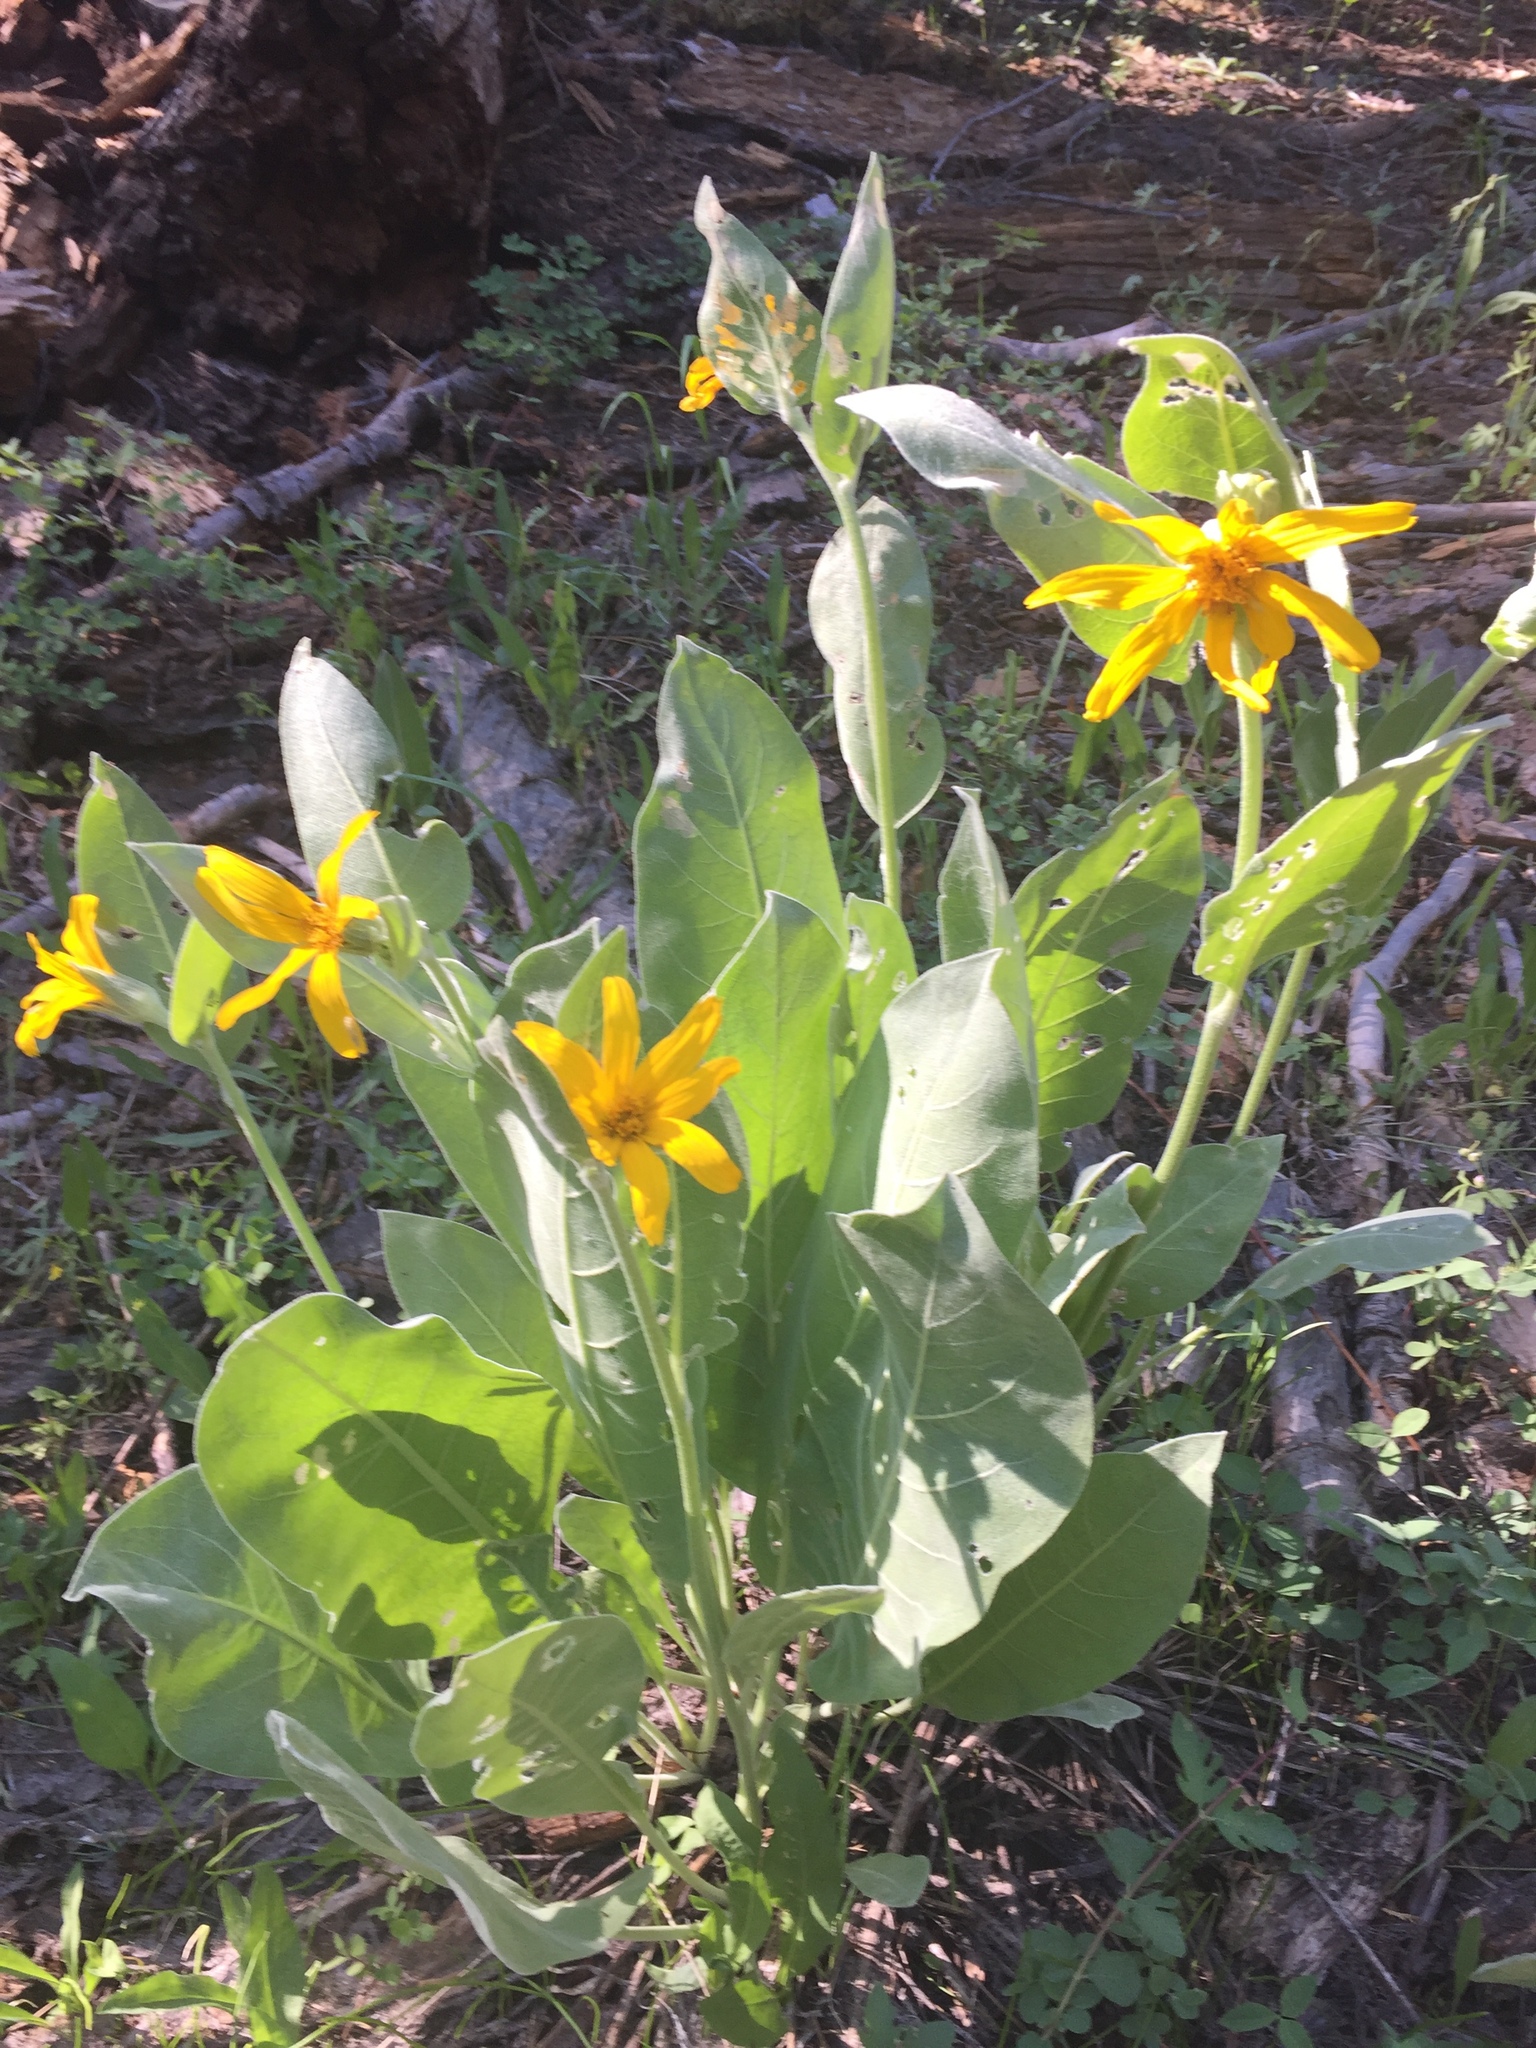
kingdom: Plantae
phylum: Tracheophyta
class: Magnoliopsida
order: Asterales
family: Asteraceae
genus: Wyethia
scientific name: Wyethia mollis
